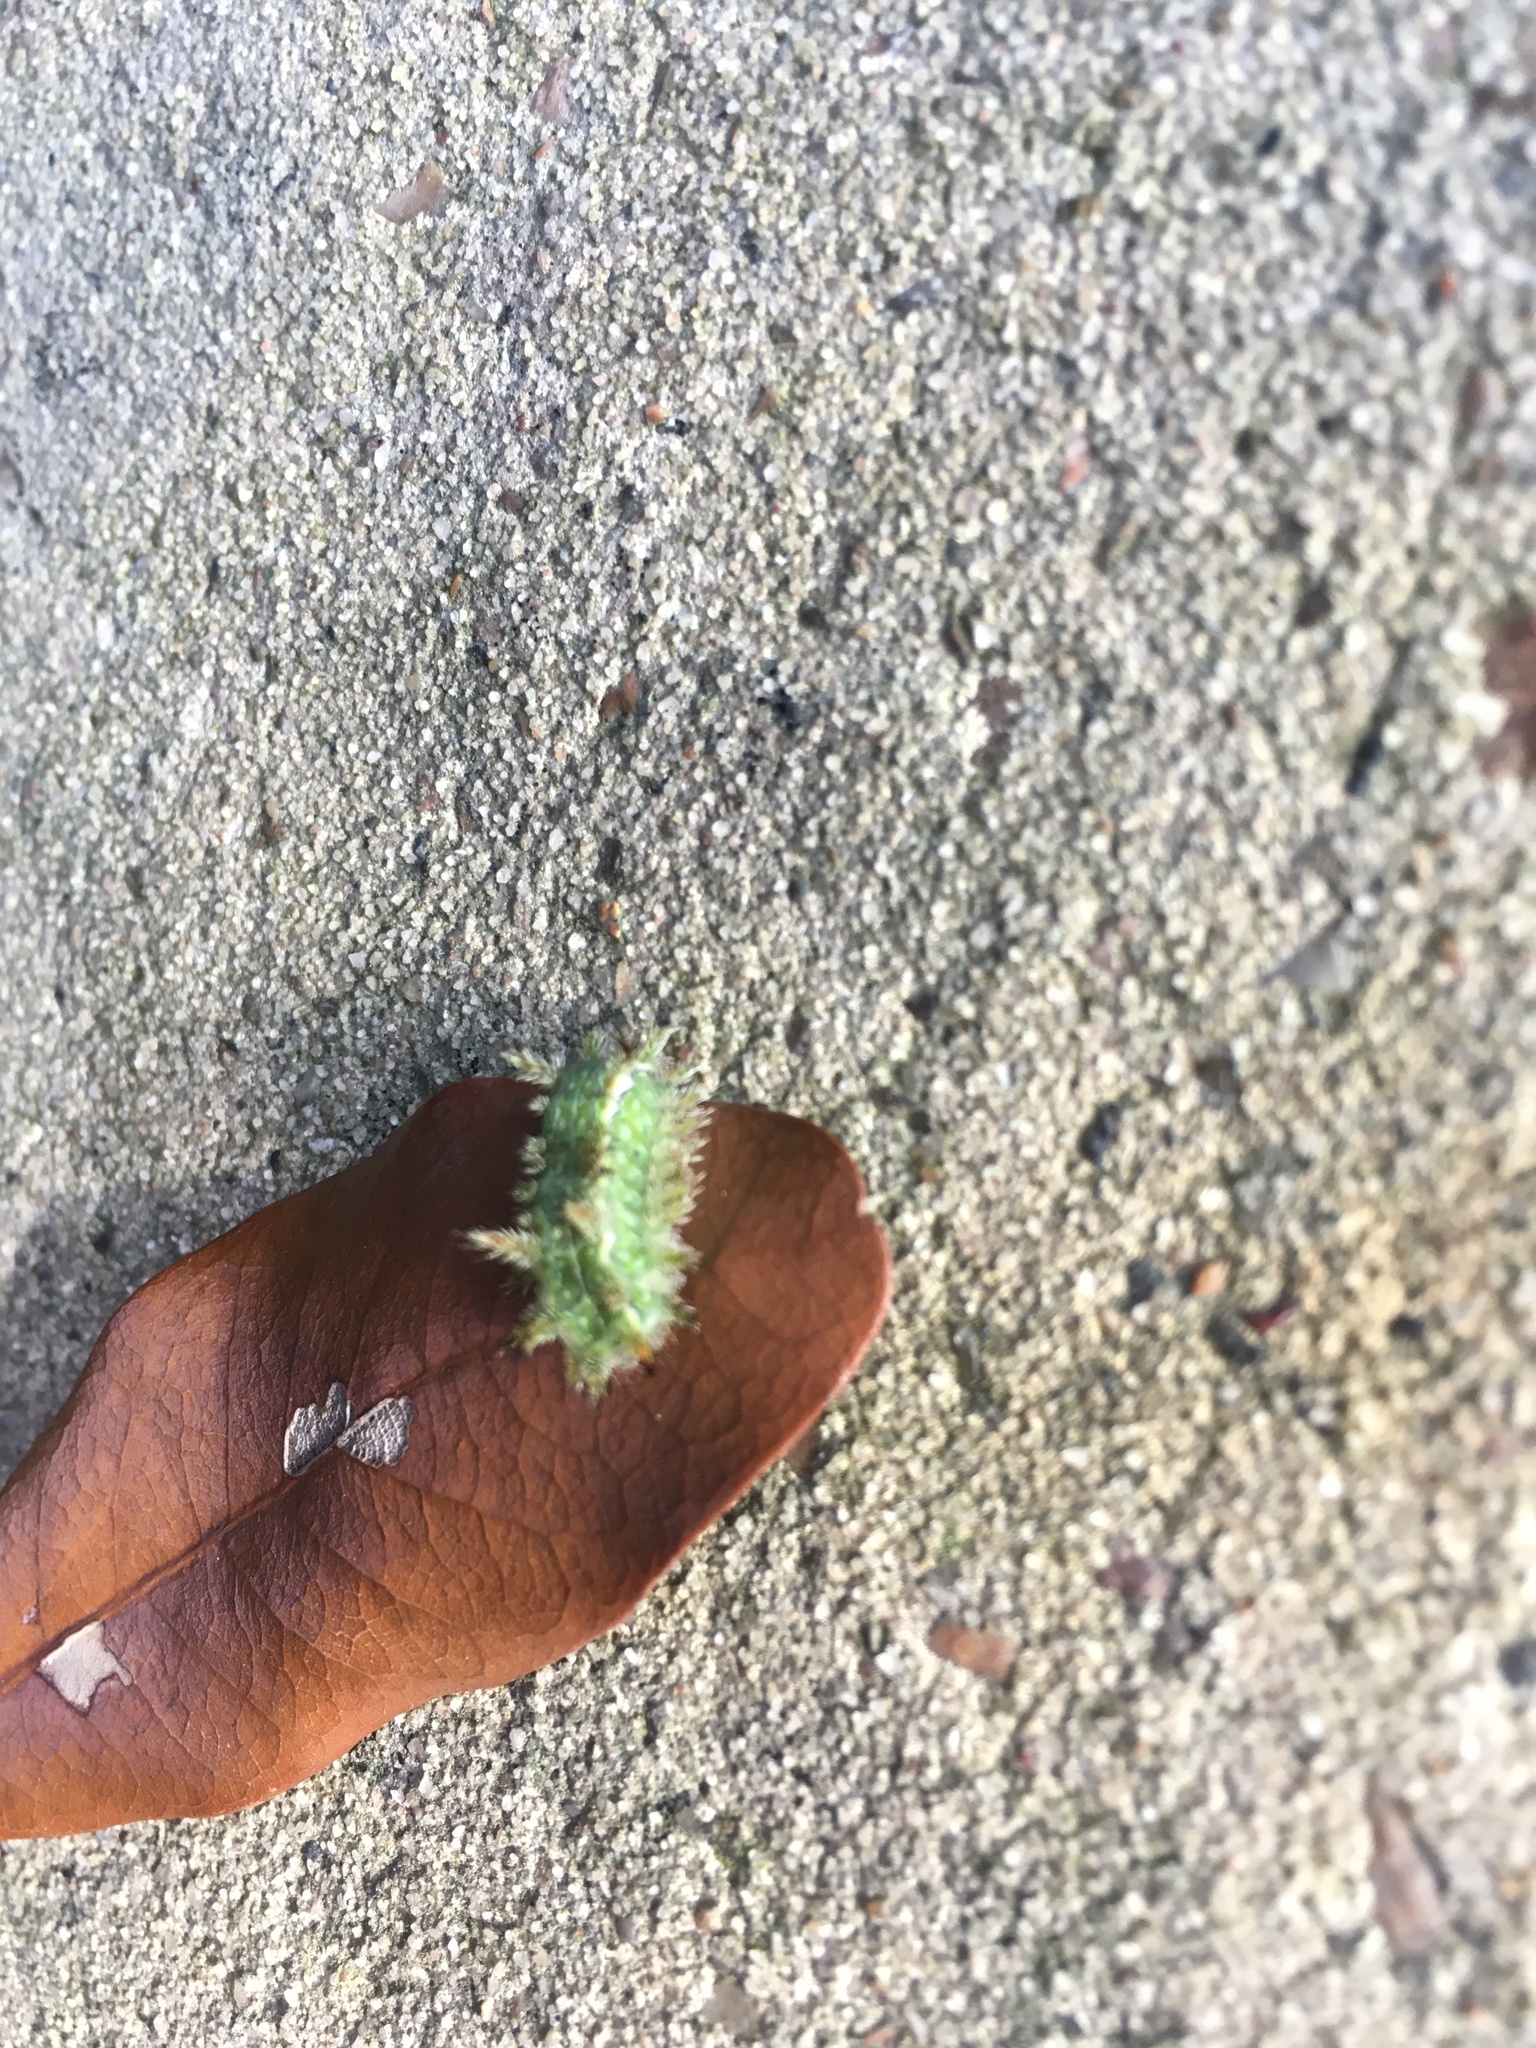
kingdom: Animalia
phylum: Arthropoda
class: Insecta
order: Lepidoptera
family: Limacodidae
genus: Euclea
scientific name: Euclea incisa
